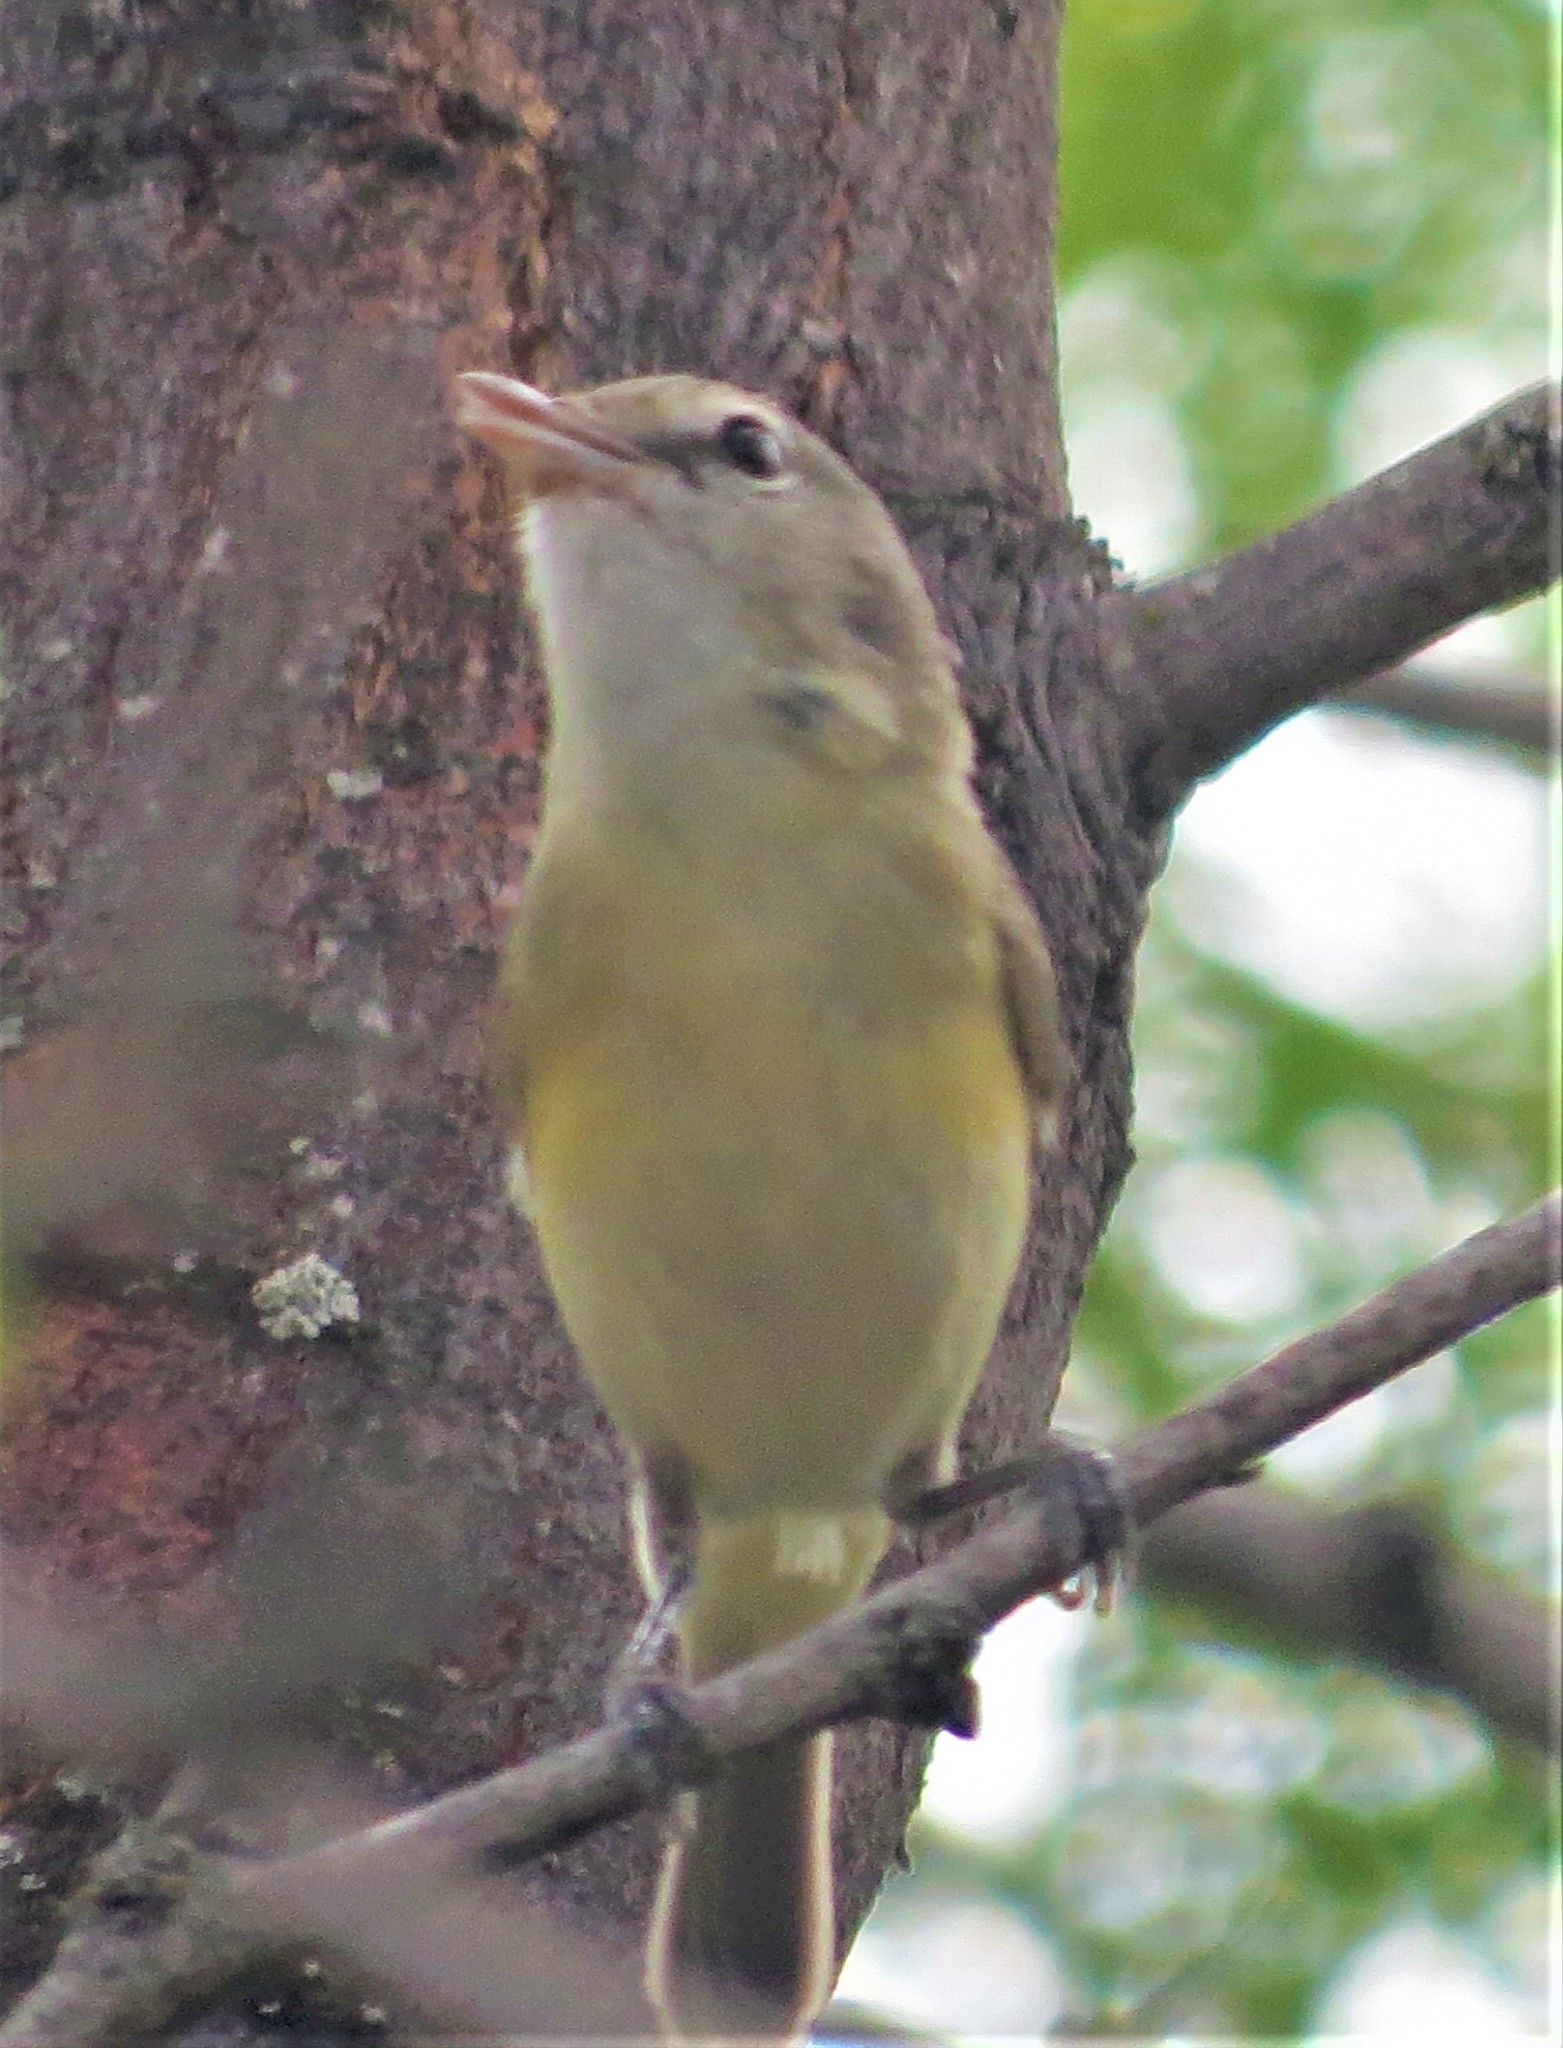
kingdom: Animalia
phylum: Chordata
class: Aves
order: Passeriformes
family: Vireonidae
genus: Vireo
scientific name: Vireo bellii
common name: Bell's vireo
